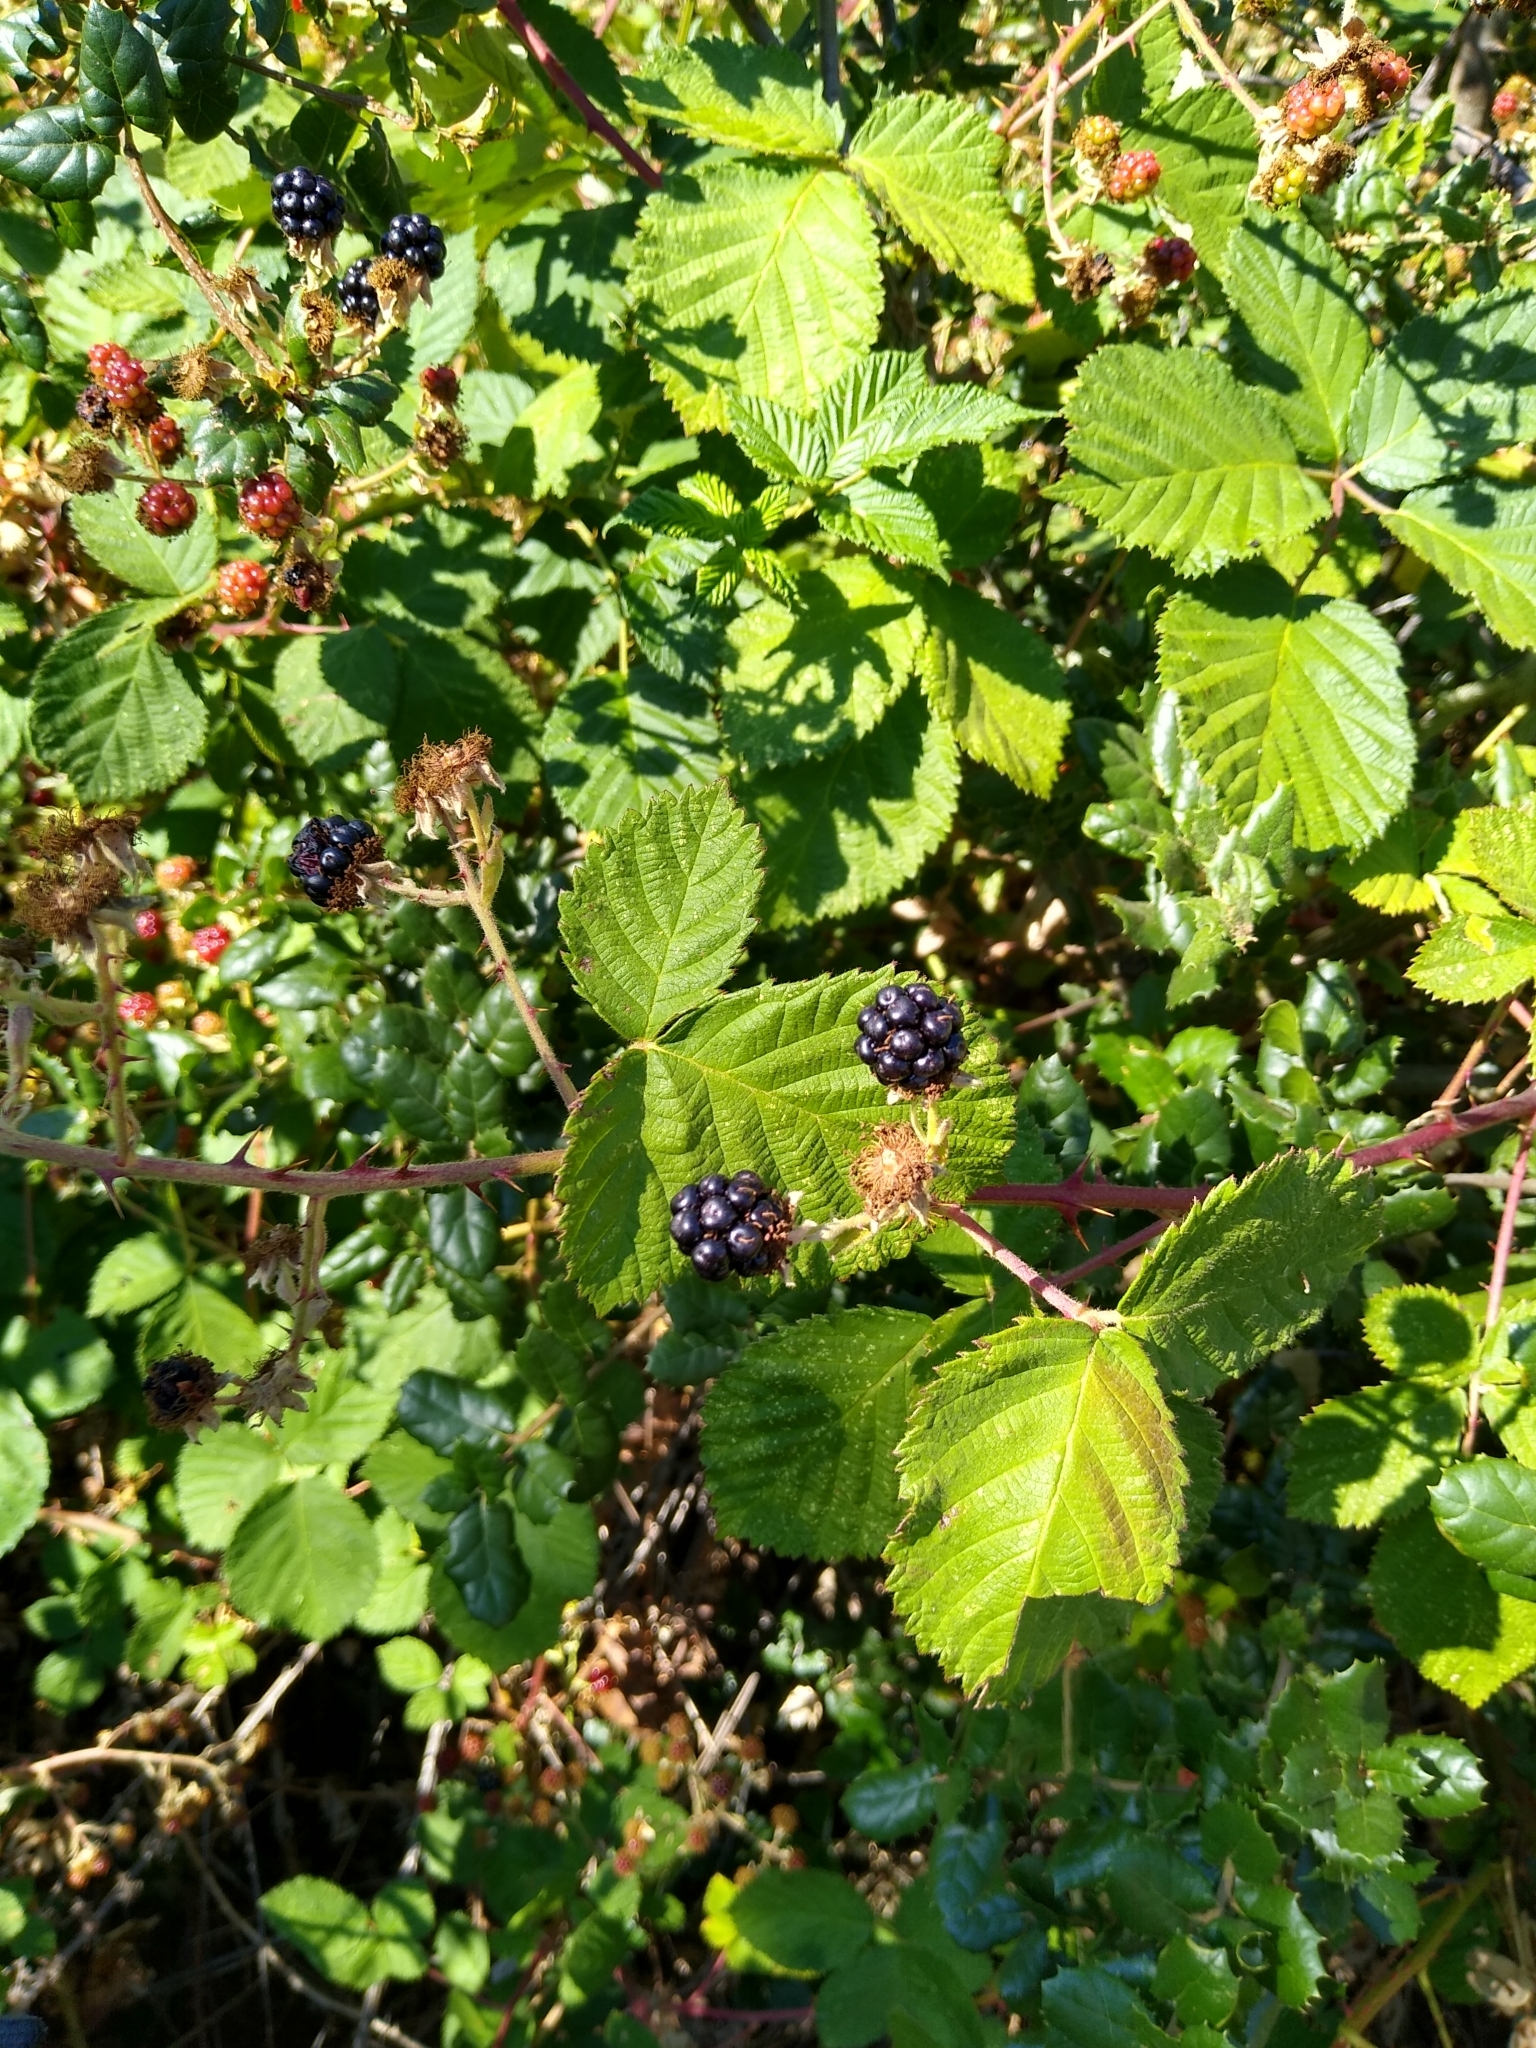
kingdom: Plantae
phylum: Tracheophyta
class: Magnoliopsida
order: Rosales
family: Rosaceae
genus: Rubus
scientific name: Rubus armeniacus
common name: Himalayan blackberry
